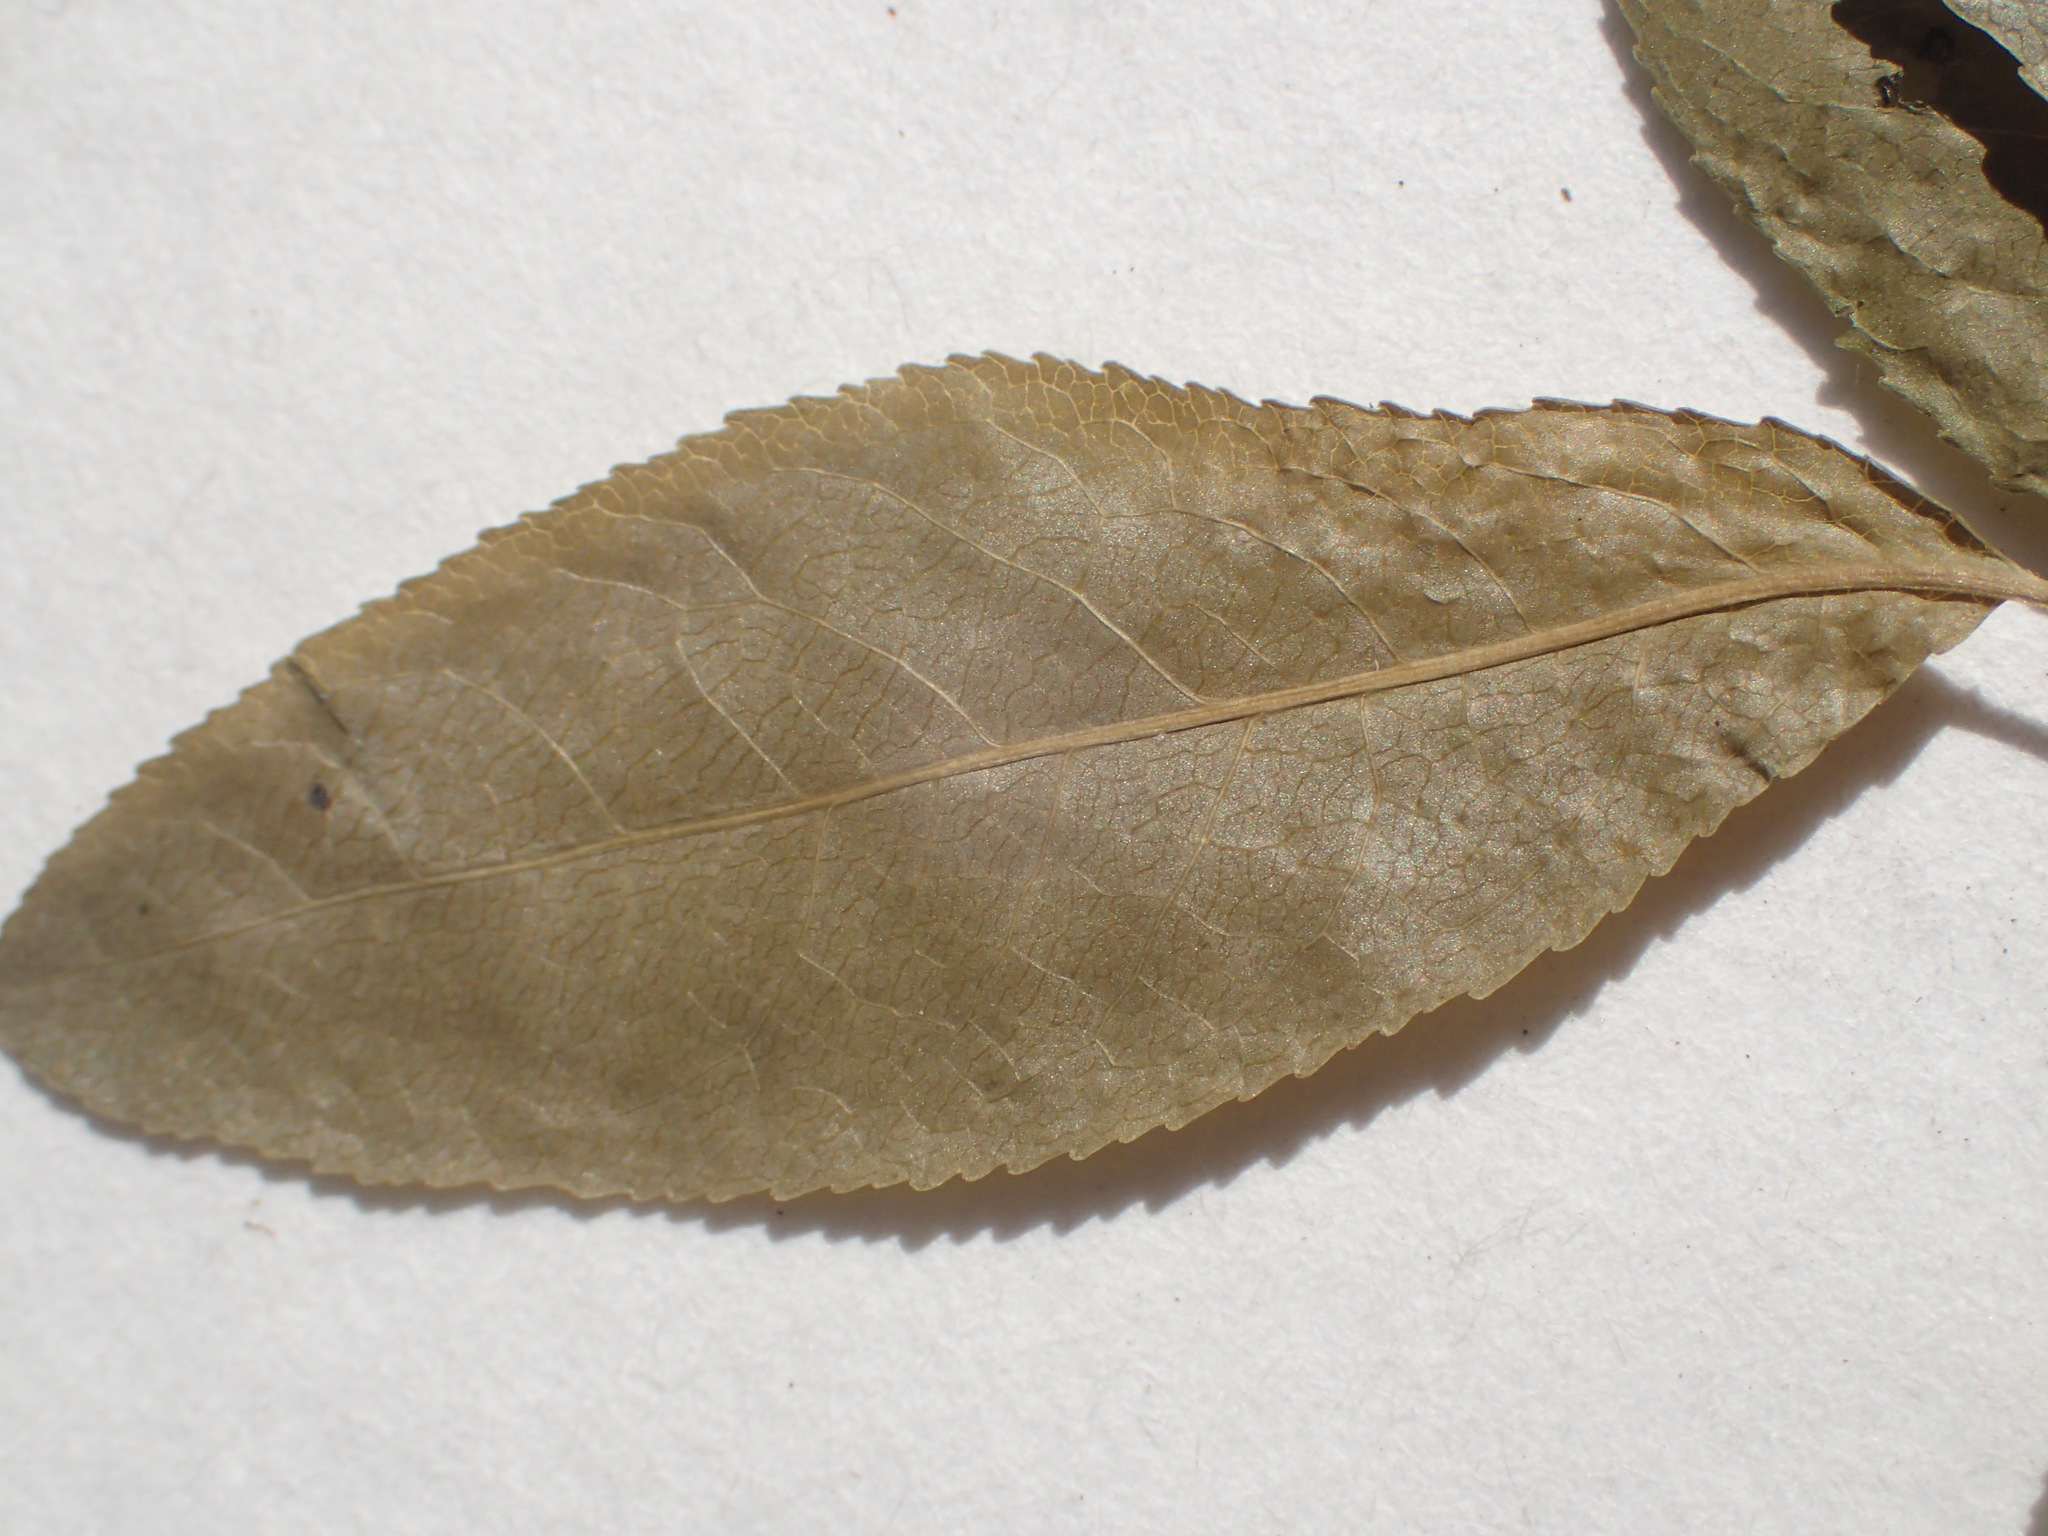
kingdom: Plantae
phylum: Tracheophyta
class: Magnoliopsida
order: Malpighiales
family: Salicaceae
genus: Salix
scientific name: Salix myrtillifolia
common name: Bilberry willow
